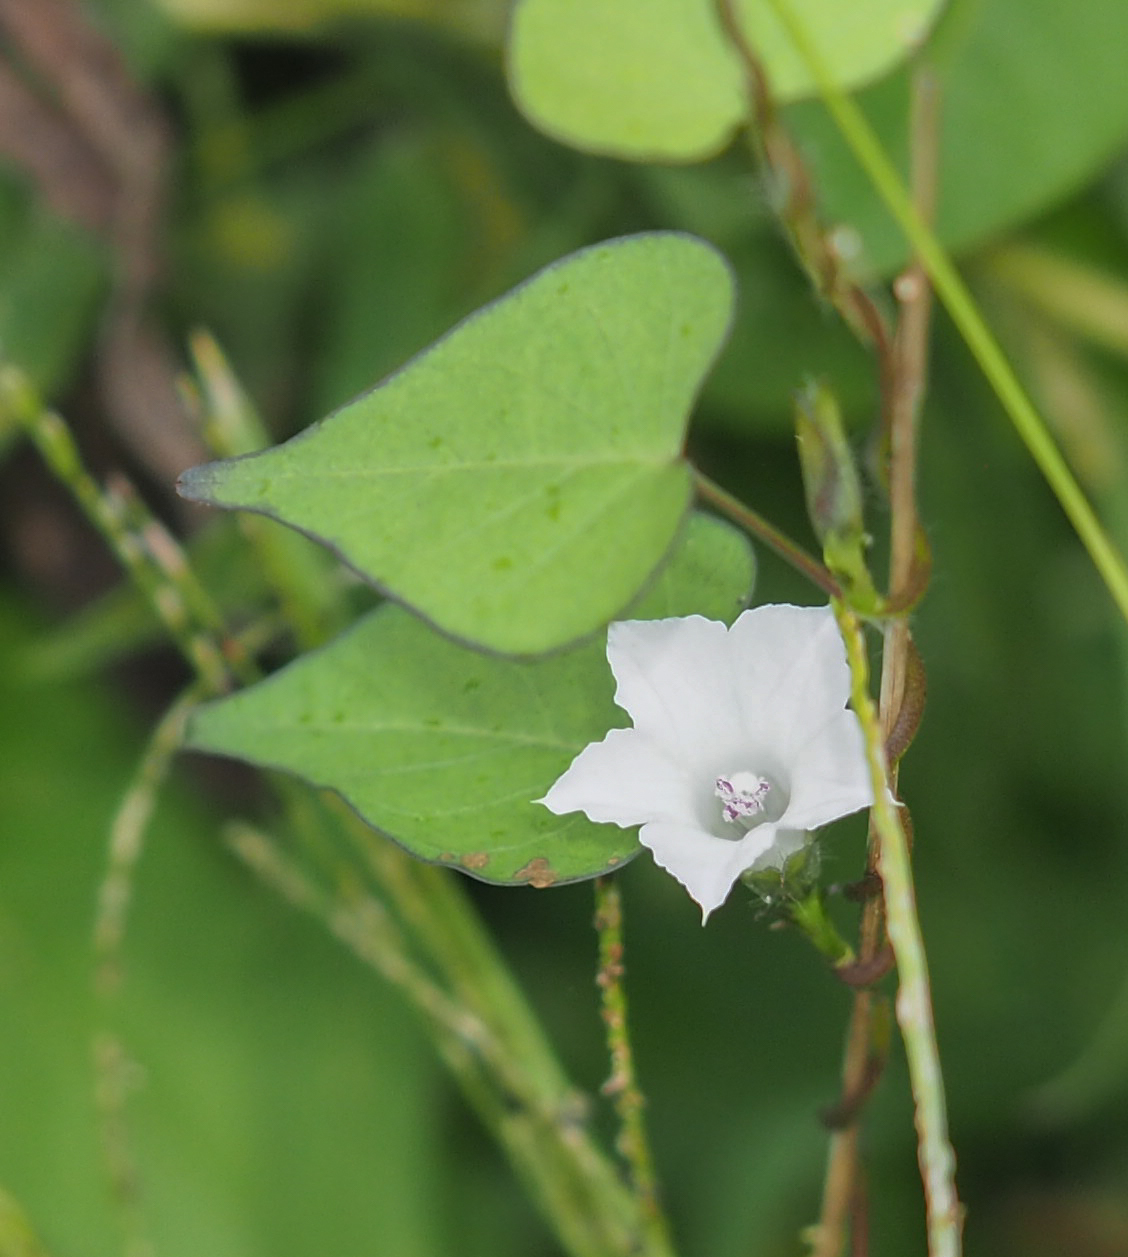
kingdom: Plantae
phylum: Tracheophyta
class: Magnoliopsida
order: Solanales
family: Convolvulaceae
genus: Ipomoea
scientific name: Ipomoea lacunosa
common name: White morning-glory
